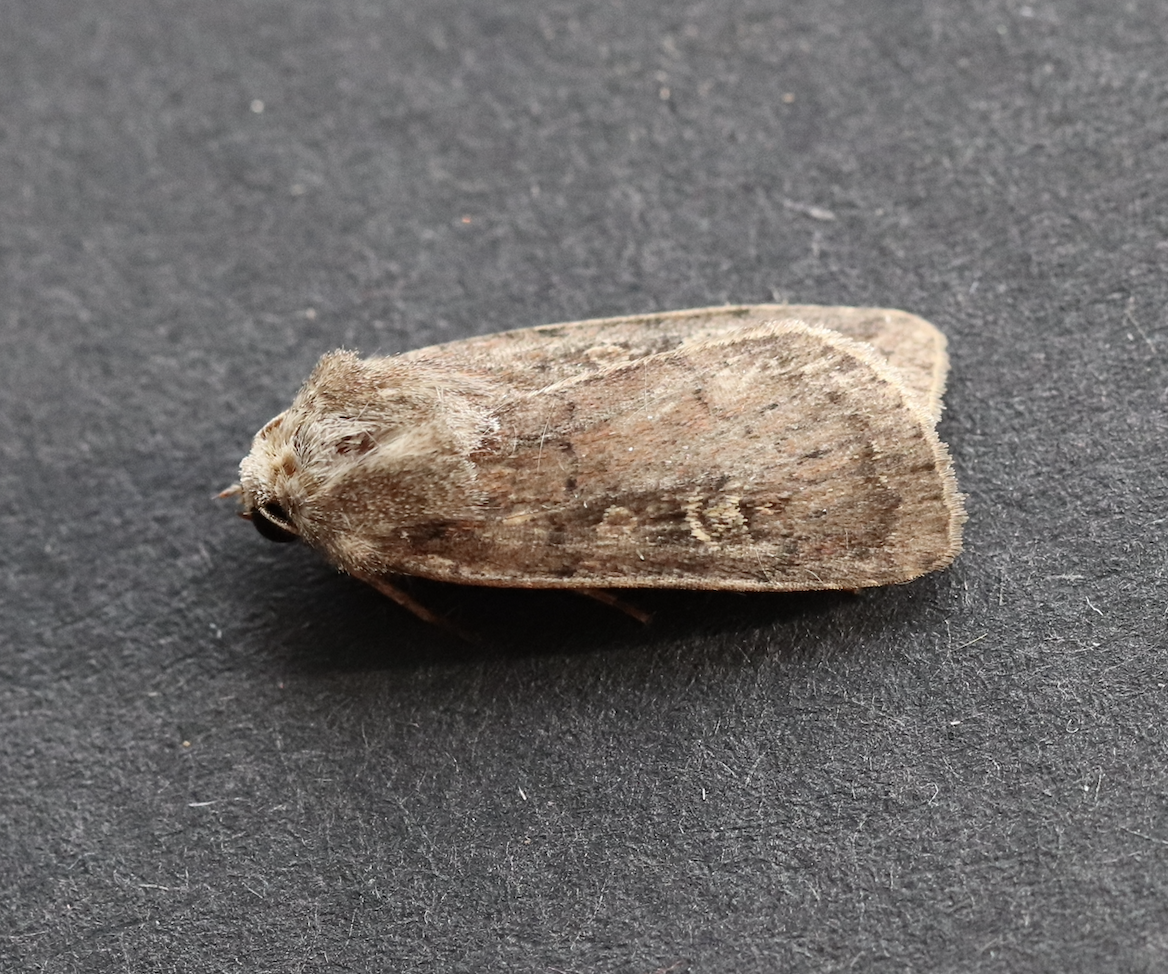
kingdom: Animalia
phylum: Arthropoda
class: Insecta
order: Lepidoptera
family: Noctuidae
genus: Xestia
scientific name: Xestia xanthographa
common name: Square-spot rustic
